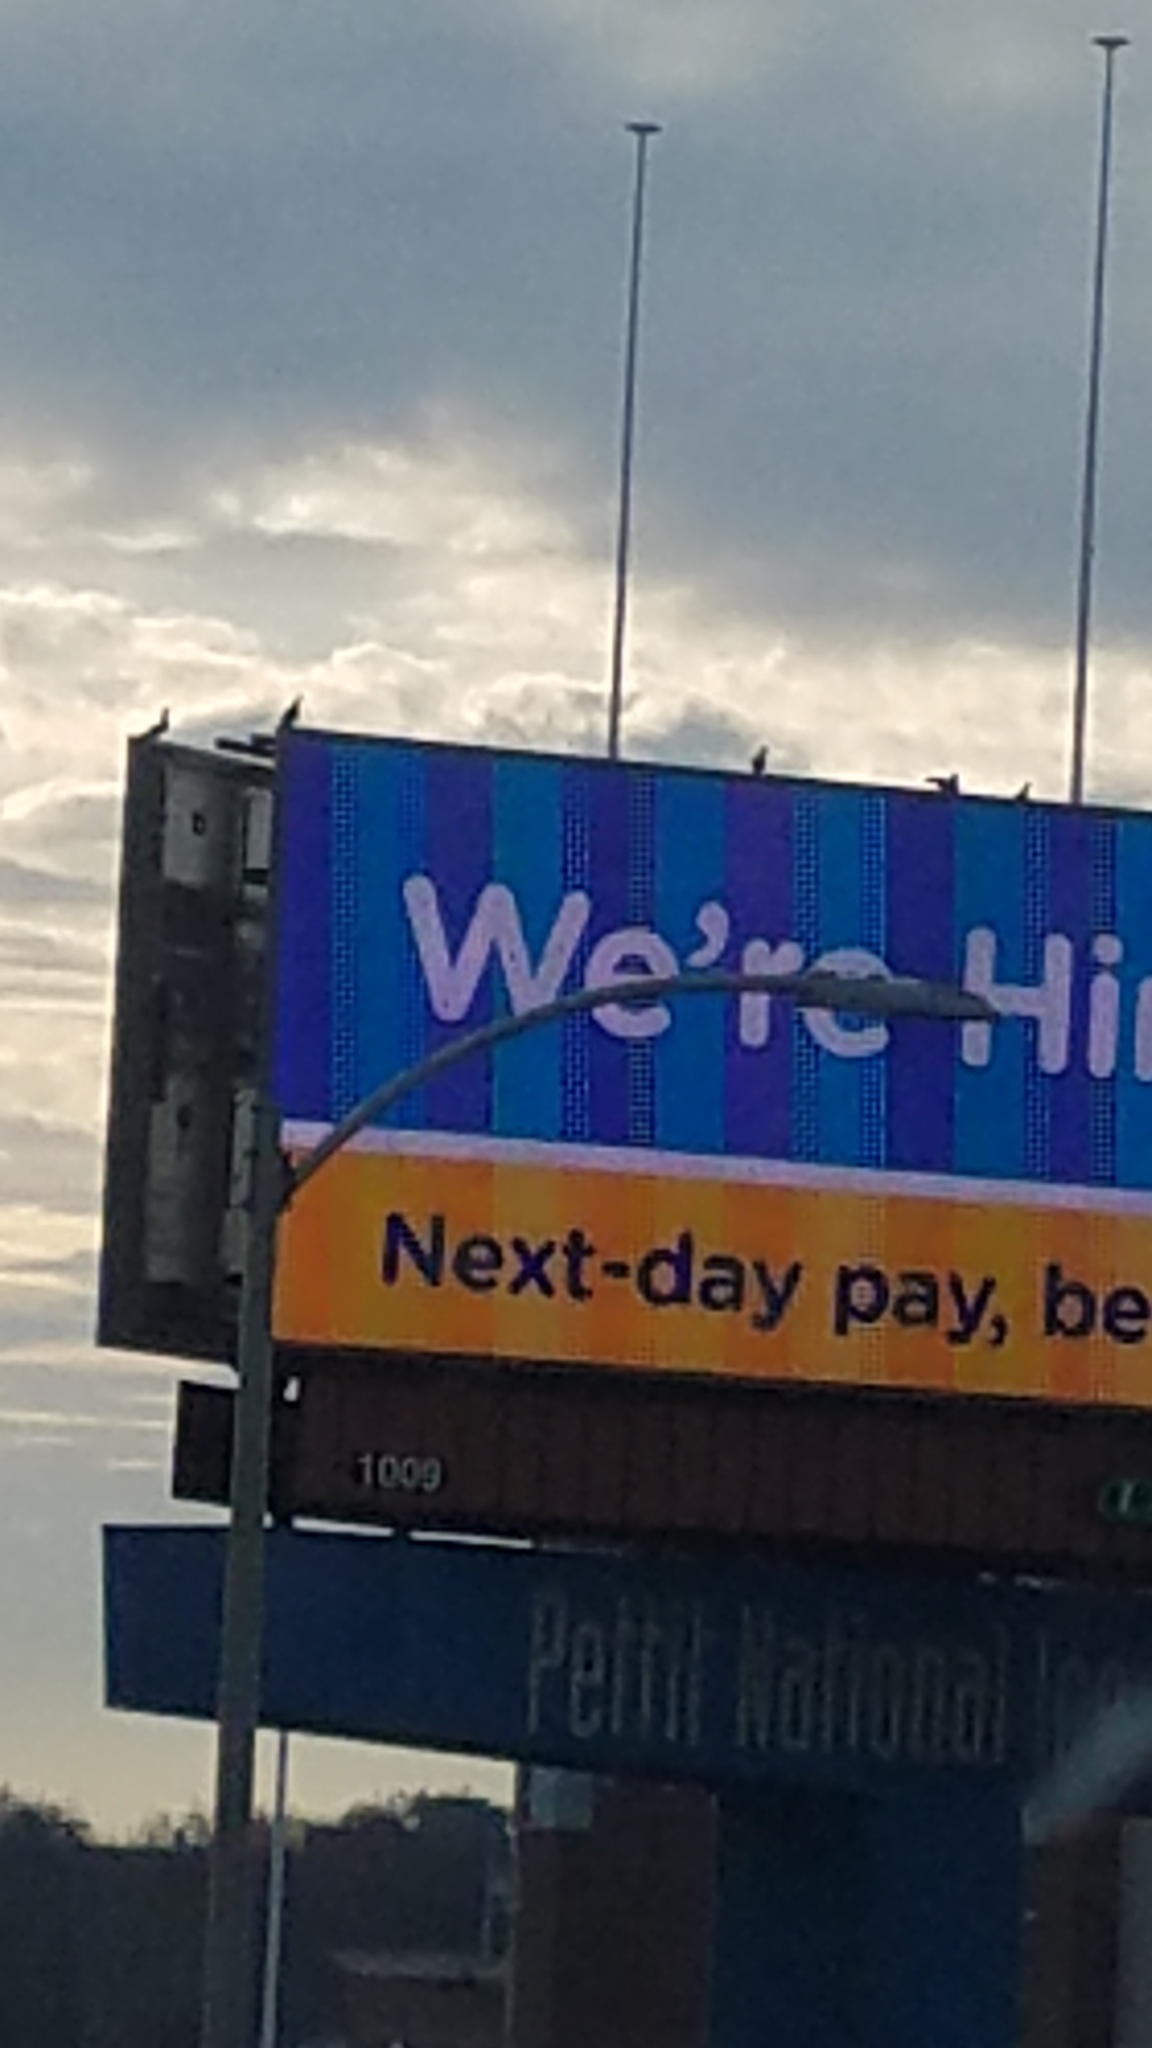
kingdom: Animalia
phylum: Chordata
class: Aves
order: Columbiformes
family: Columbidae
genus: Columba
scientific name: Columba livia
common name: Rock pigeon
